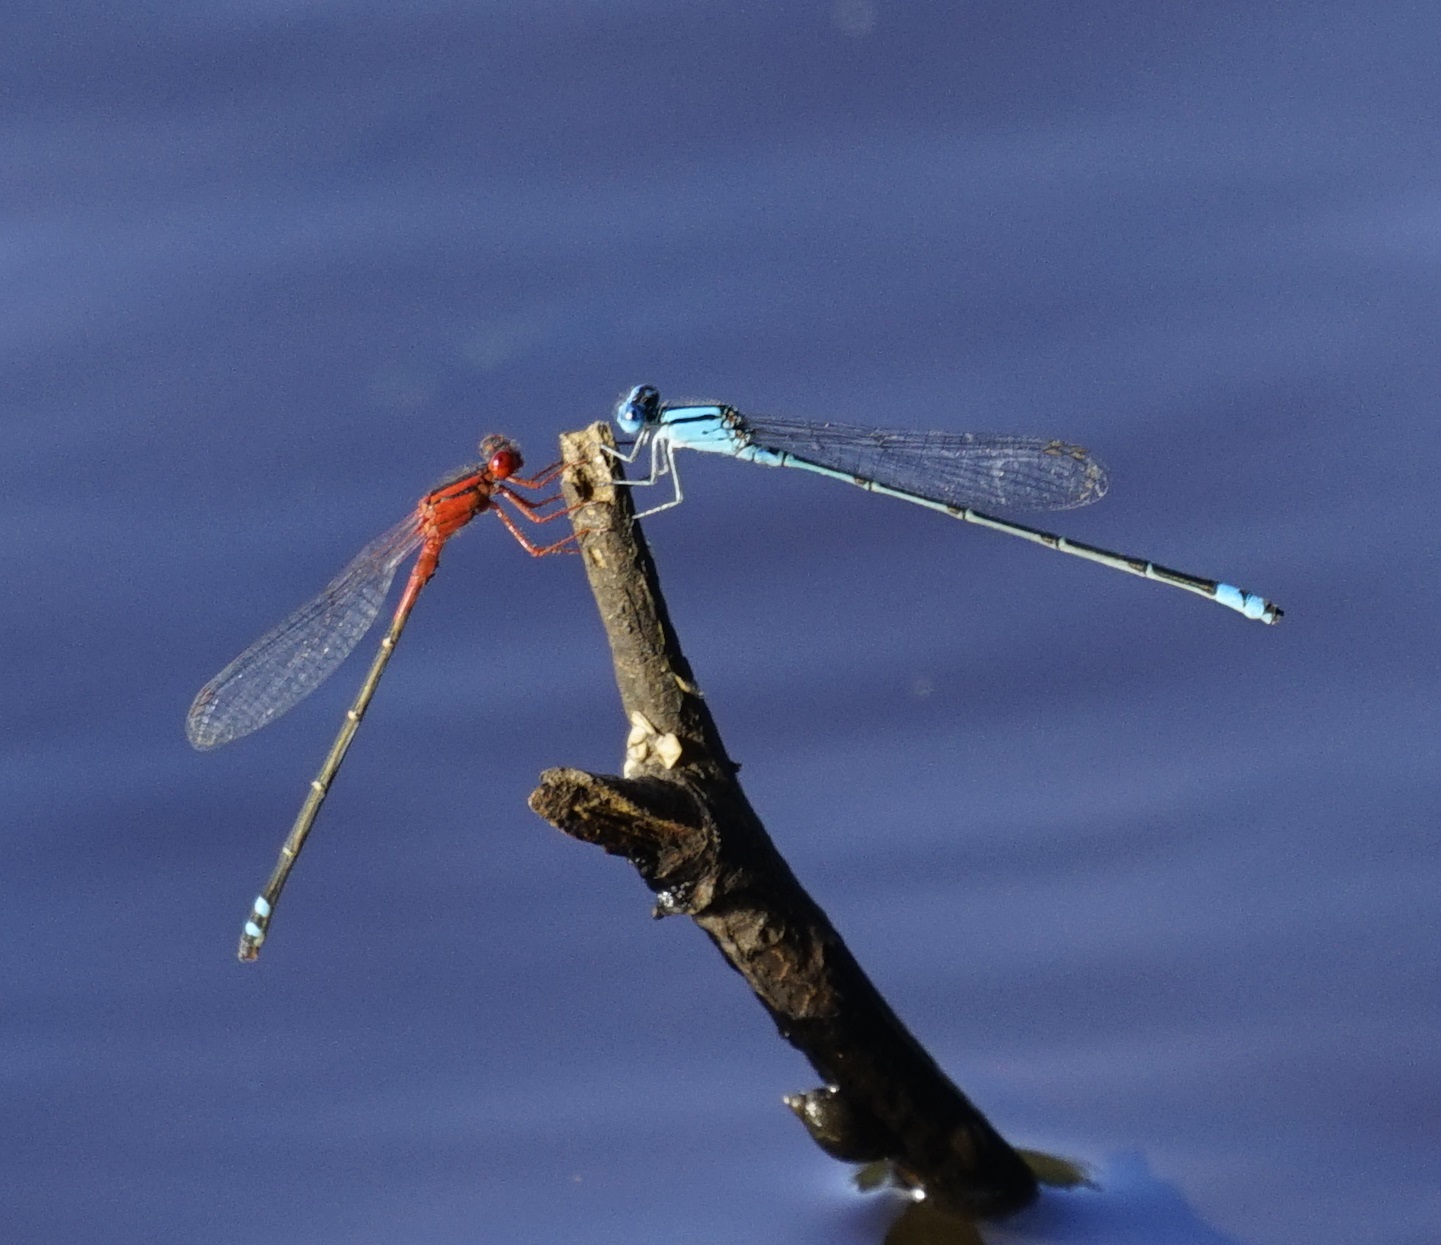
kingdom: Animalia
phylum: Arthropoda
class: Insecta
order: Odonata
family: Coenagrionidae
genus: Xanthagrion
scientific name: Xanthagrion erythroneurum
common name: Red and blue damsel
